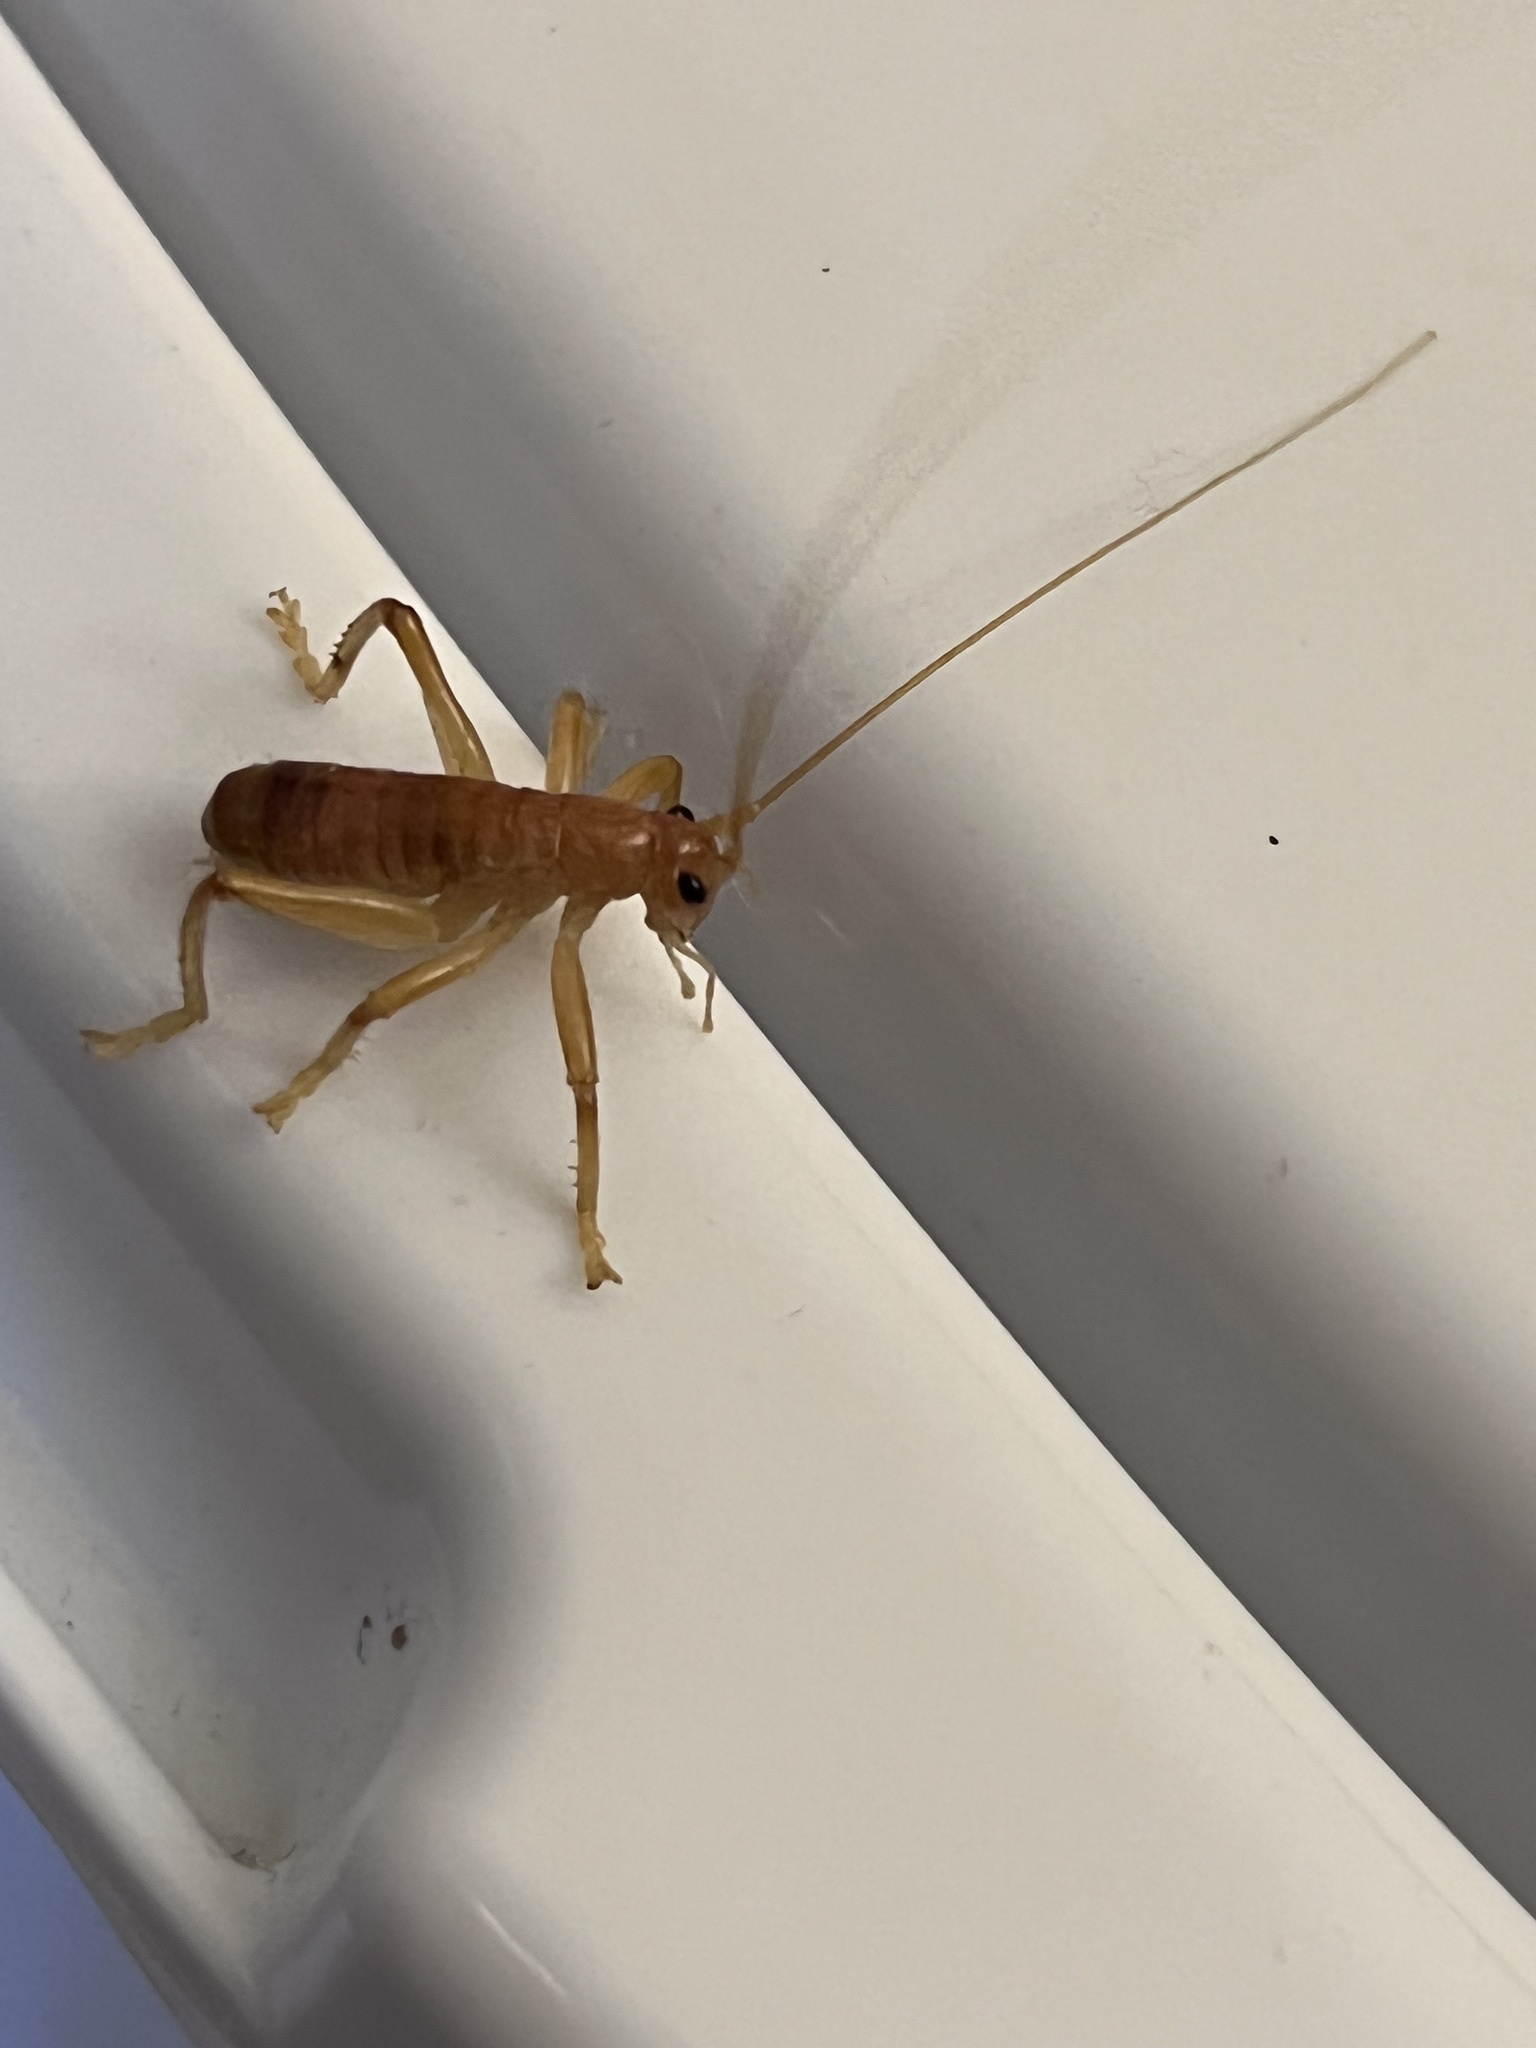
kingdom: Animalia
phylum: Arthropoda
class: Insecta
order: Orthoptera
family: Gryllacrididae
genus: Camptonotus
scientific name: Camptonotus carolinensis
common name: Carolina leaf-roller
